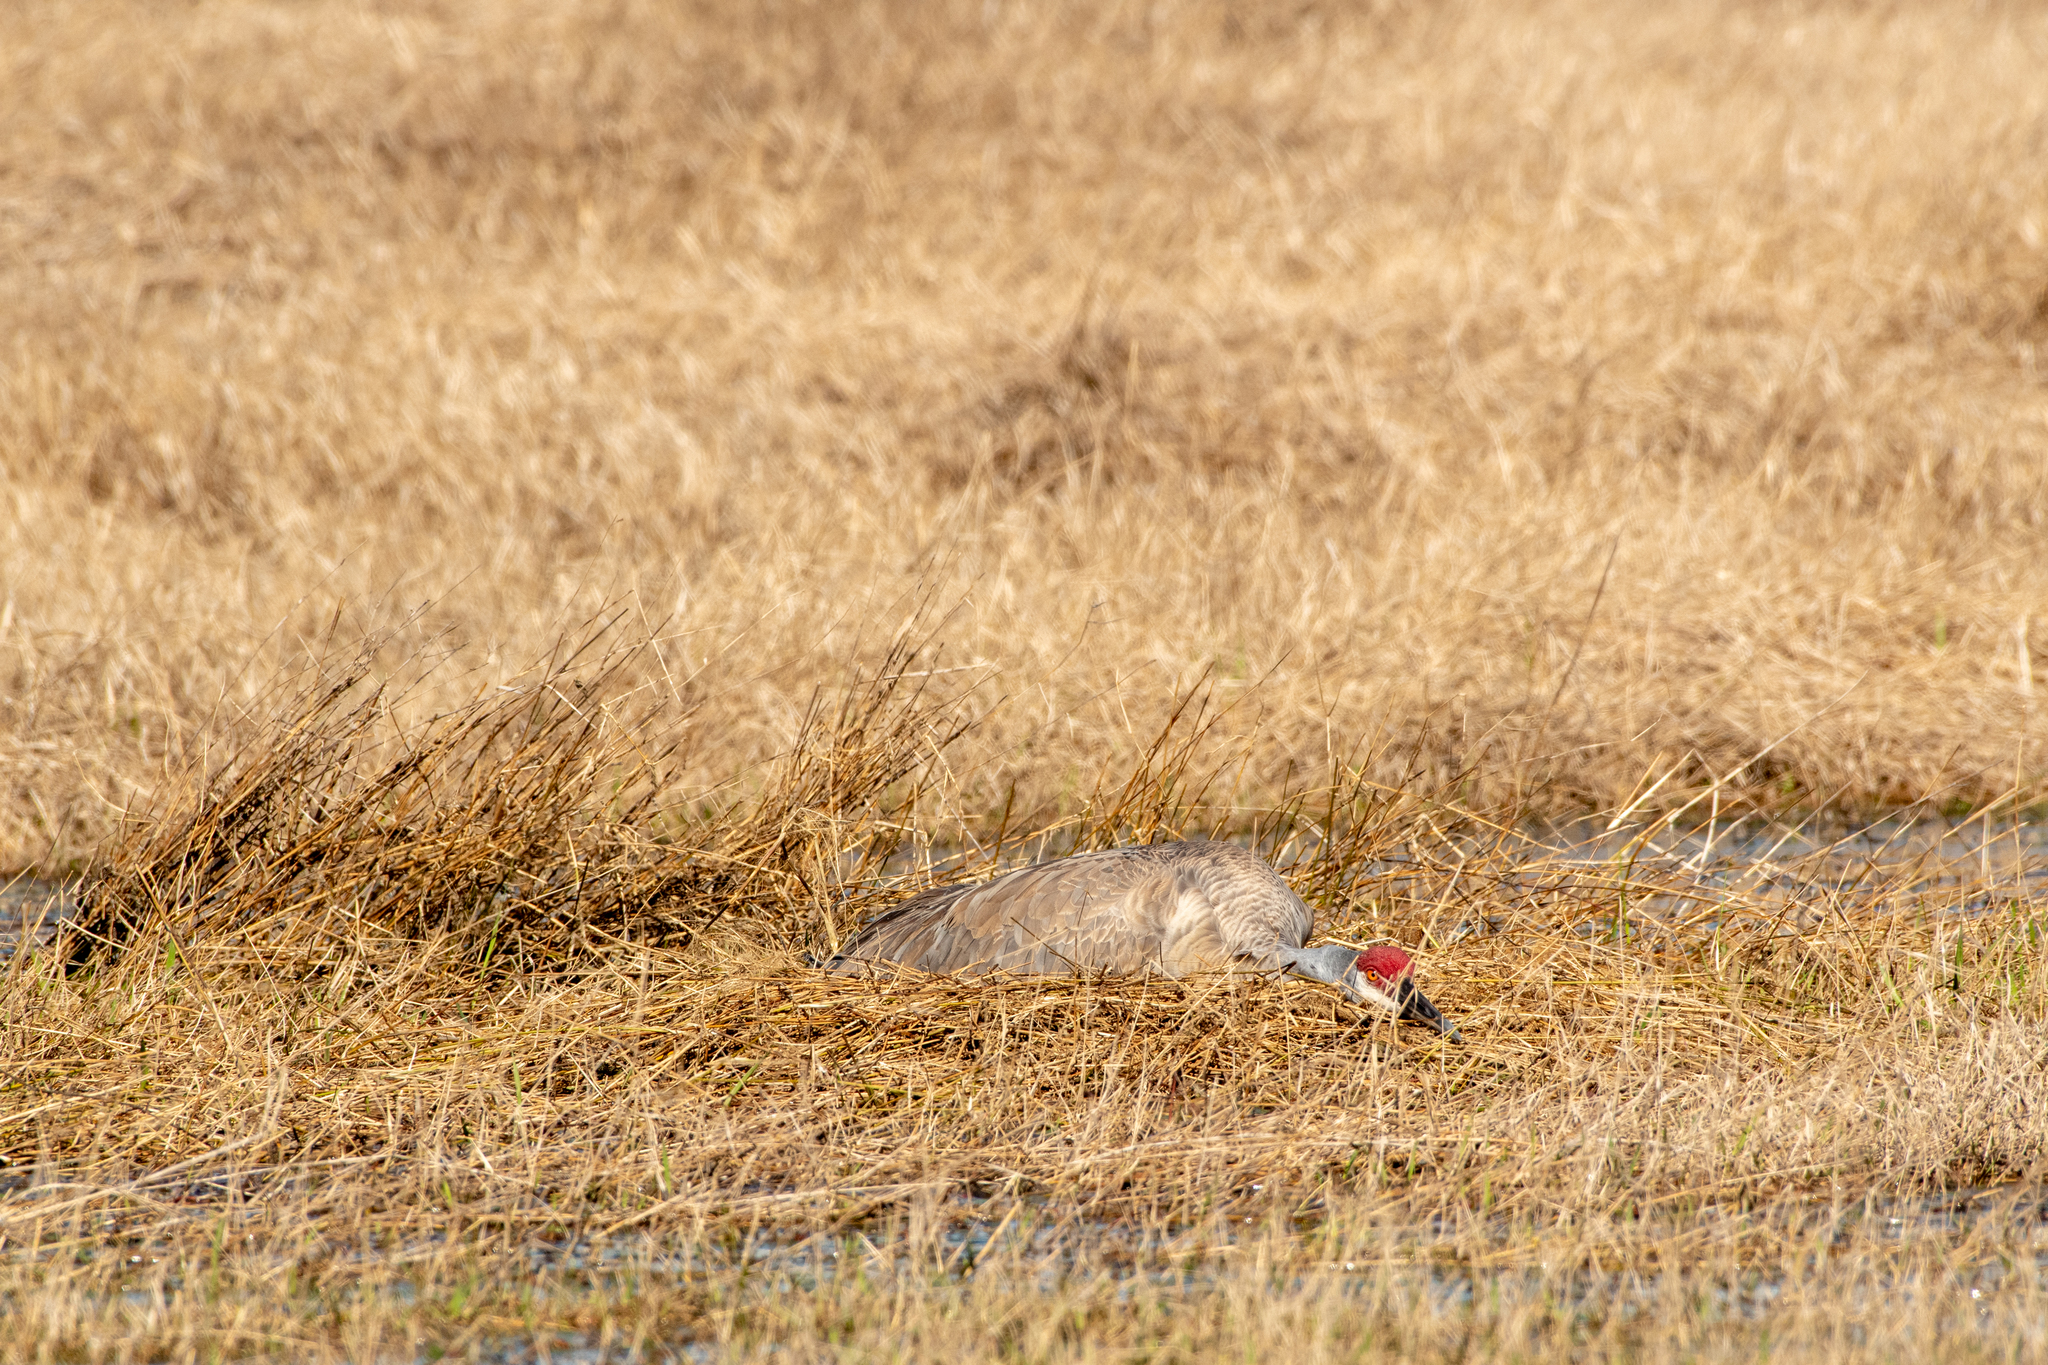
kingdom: Animalia
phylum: Chordata
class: Aves
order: Gruiformes
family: Gruidae
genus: Grus
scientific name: Grus canadensis
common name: Sandhill crane
